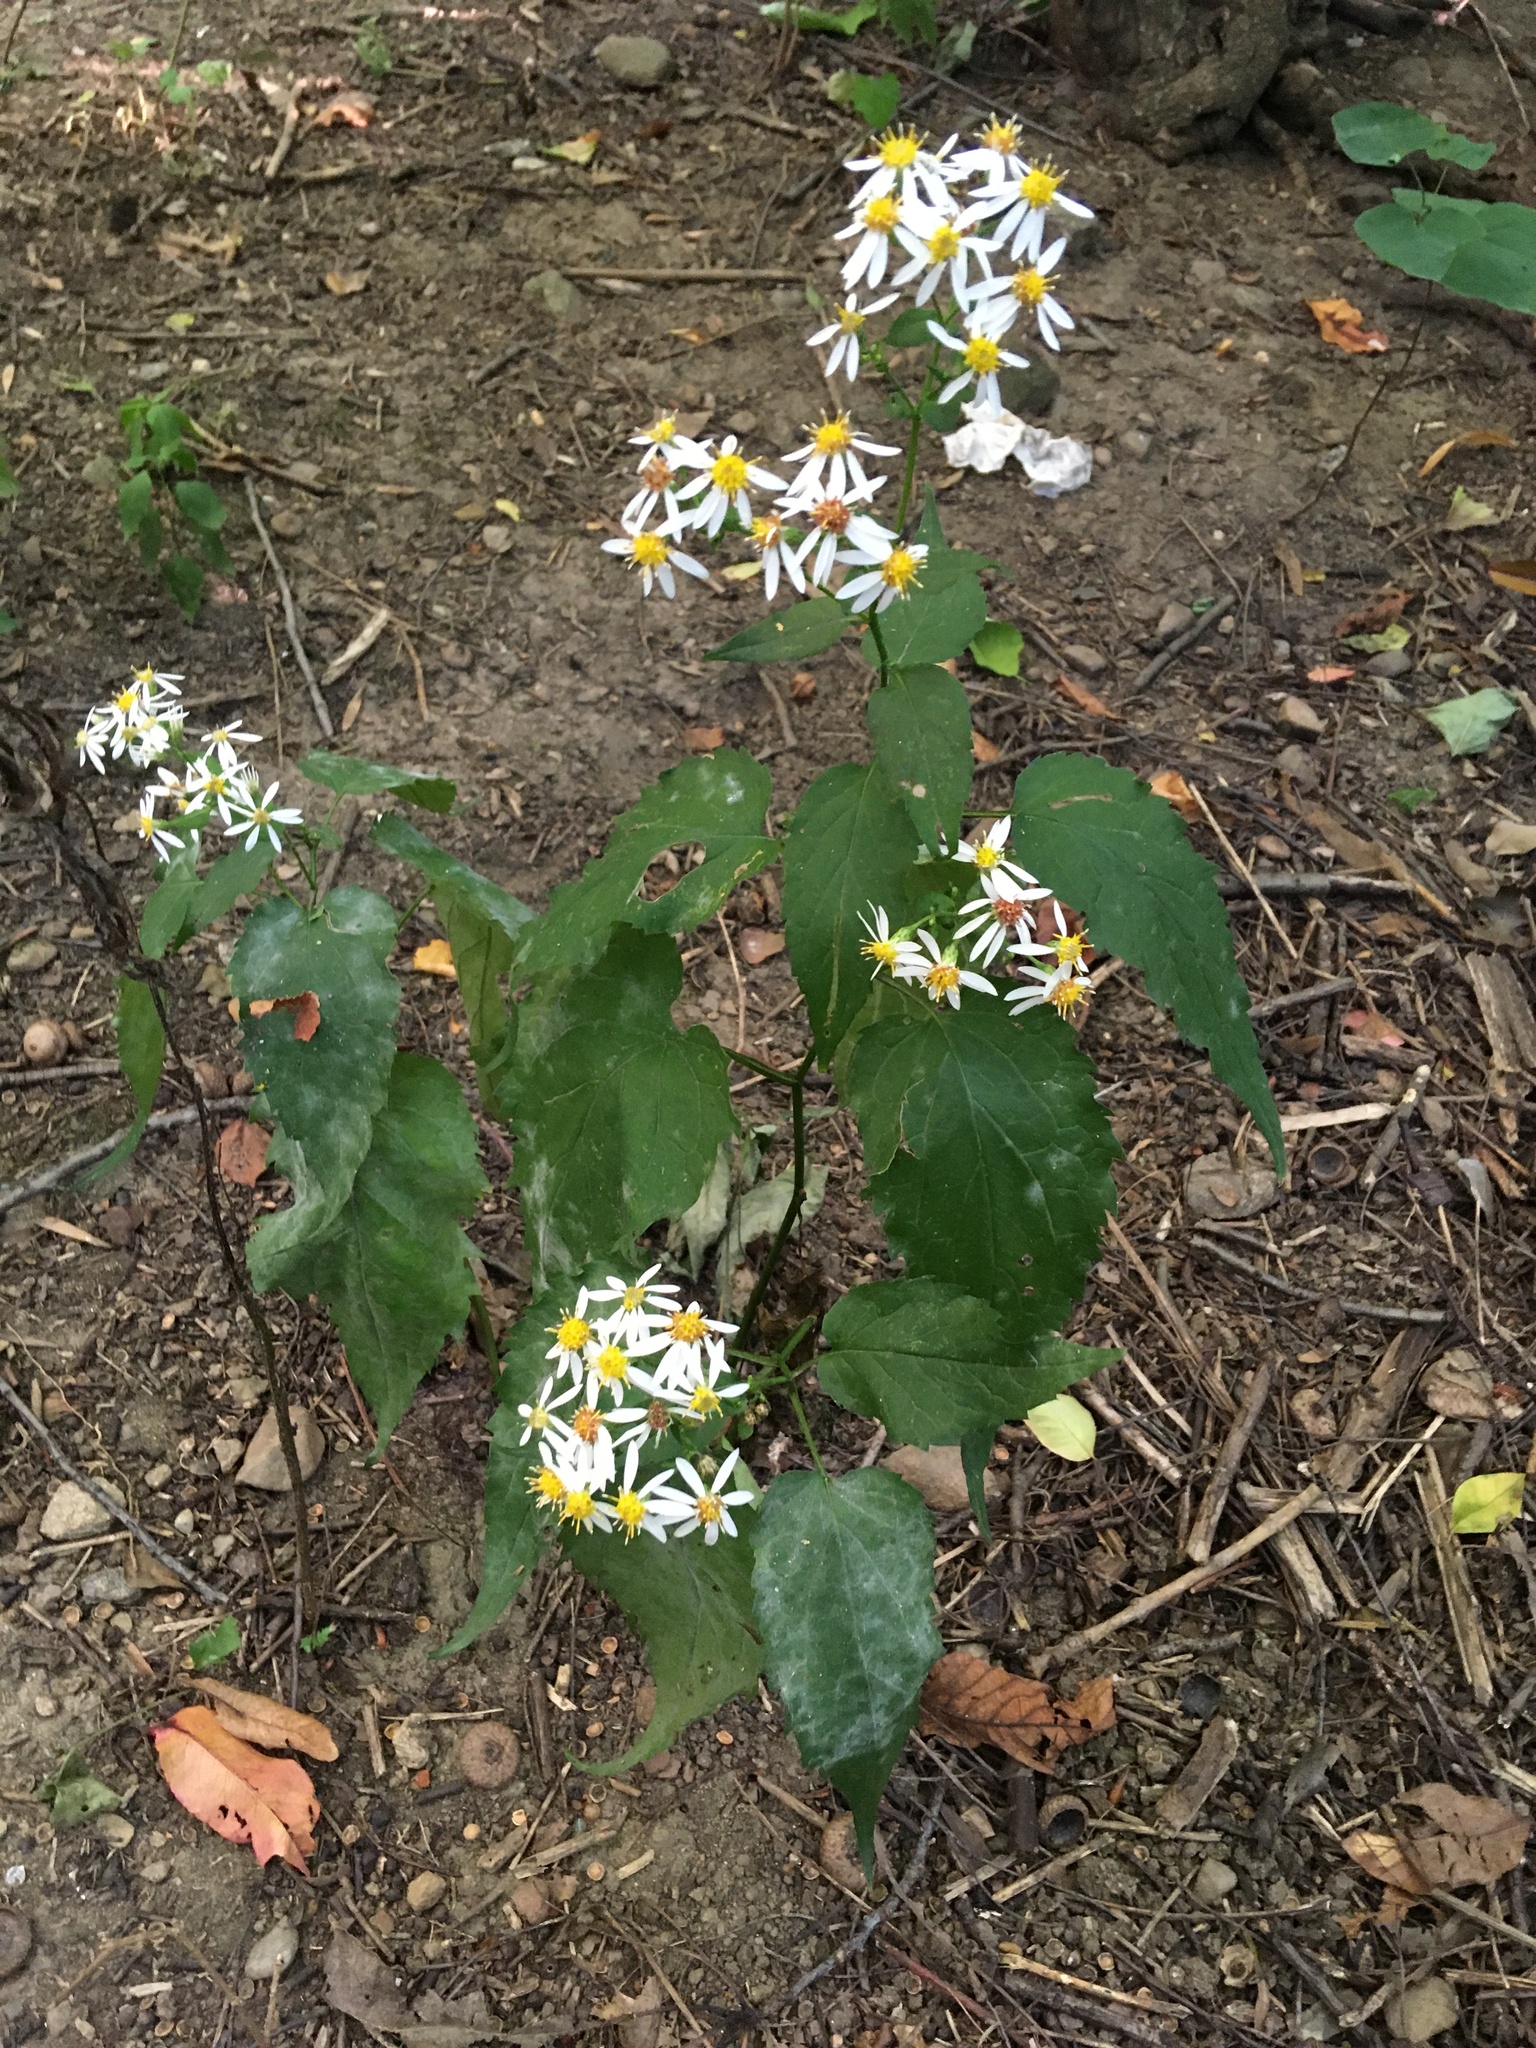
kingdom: Plantae
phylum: Tracheophyta
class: Magnoliopsida
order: Asterales
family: Asteraceae
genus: Eurybia
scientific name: Eurybia divaricata
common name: White wood aster
